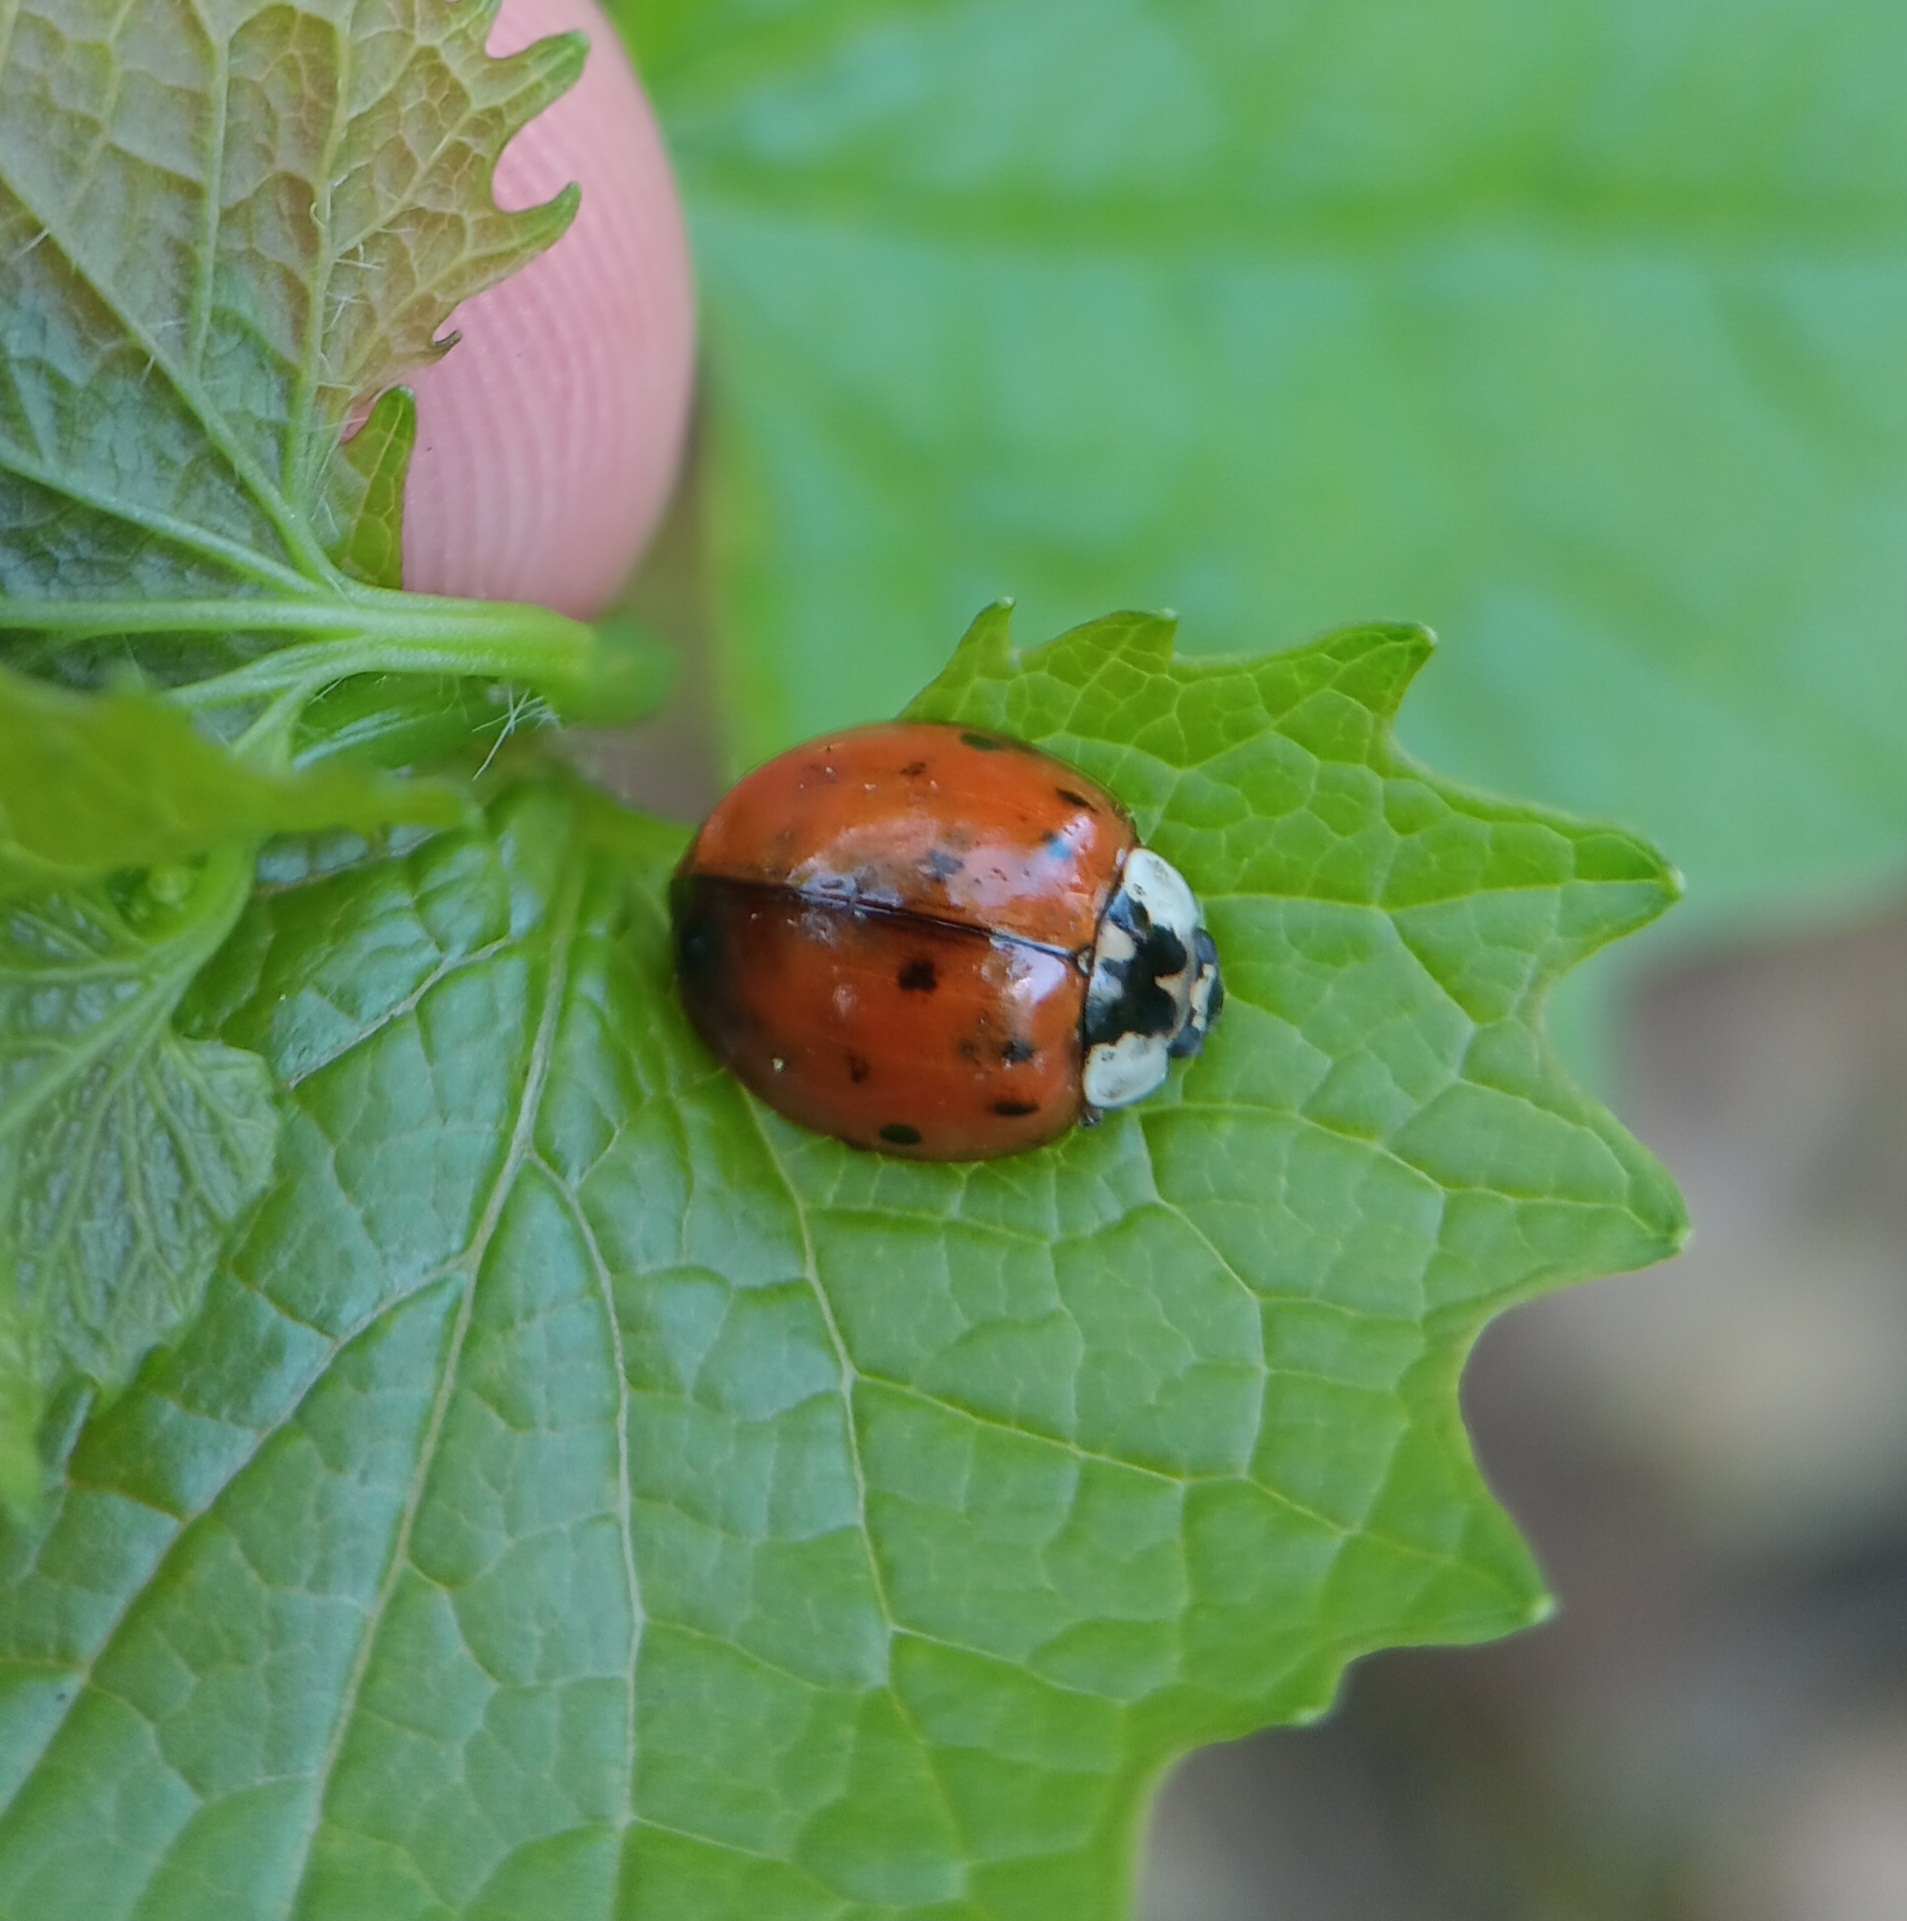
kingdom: Animalia
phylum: Arthropoda
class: Insecta
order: Coleoptera
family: Coccinellidae
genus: Harmonia
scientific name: Harmonia axyridis
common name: Harlequin ladybird
